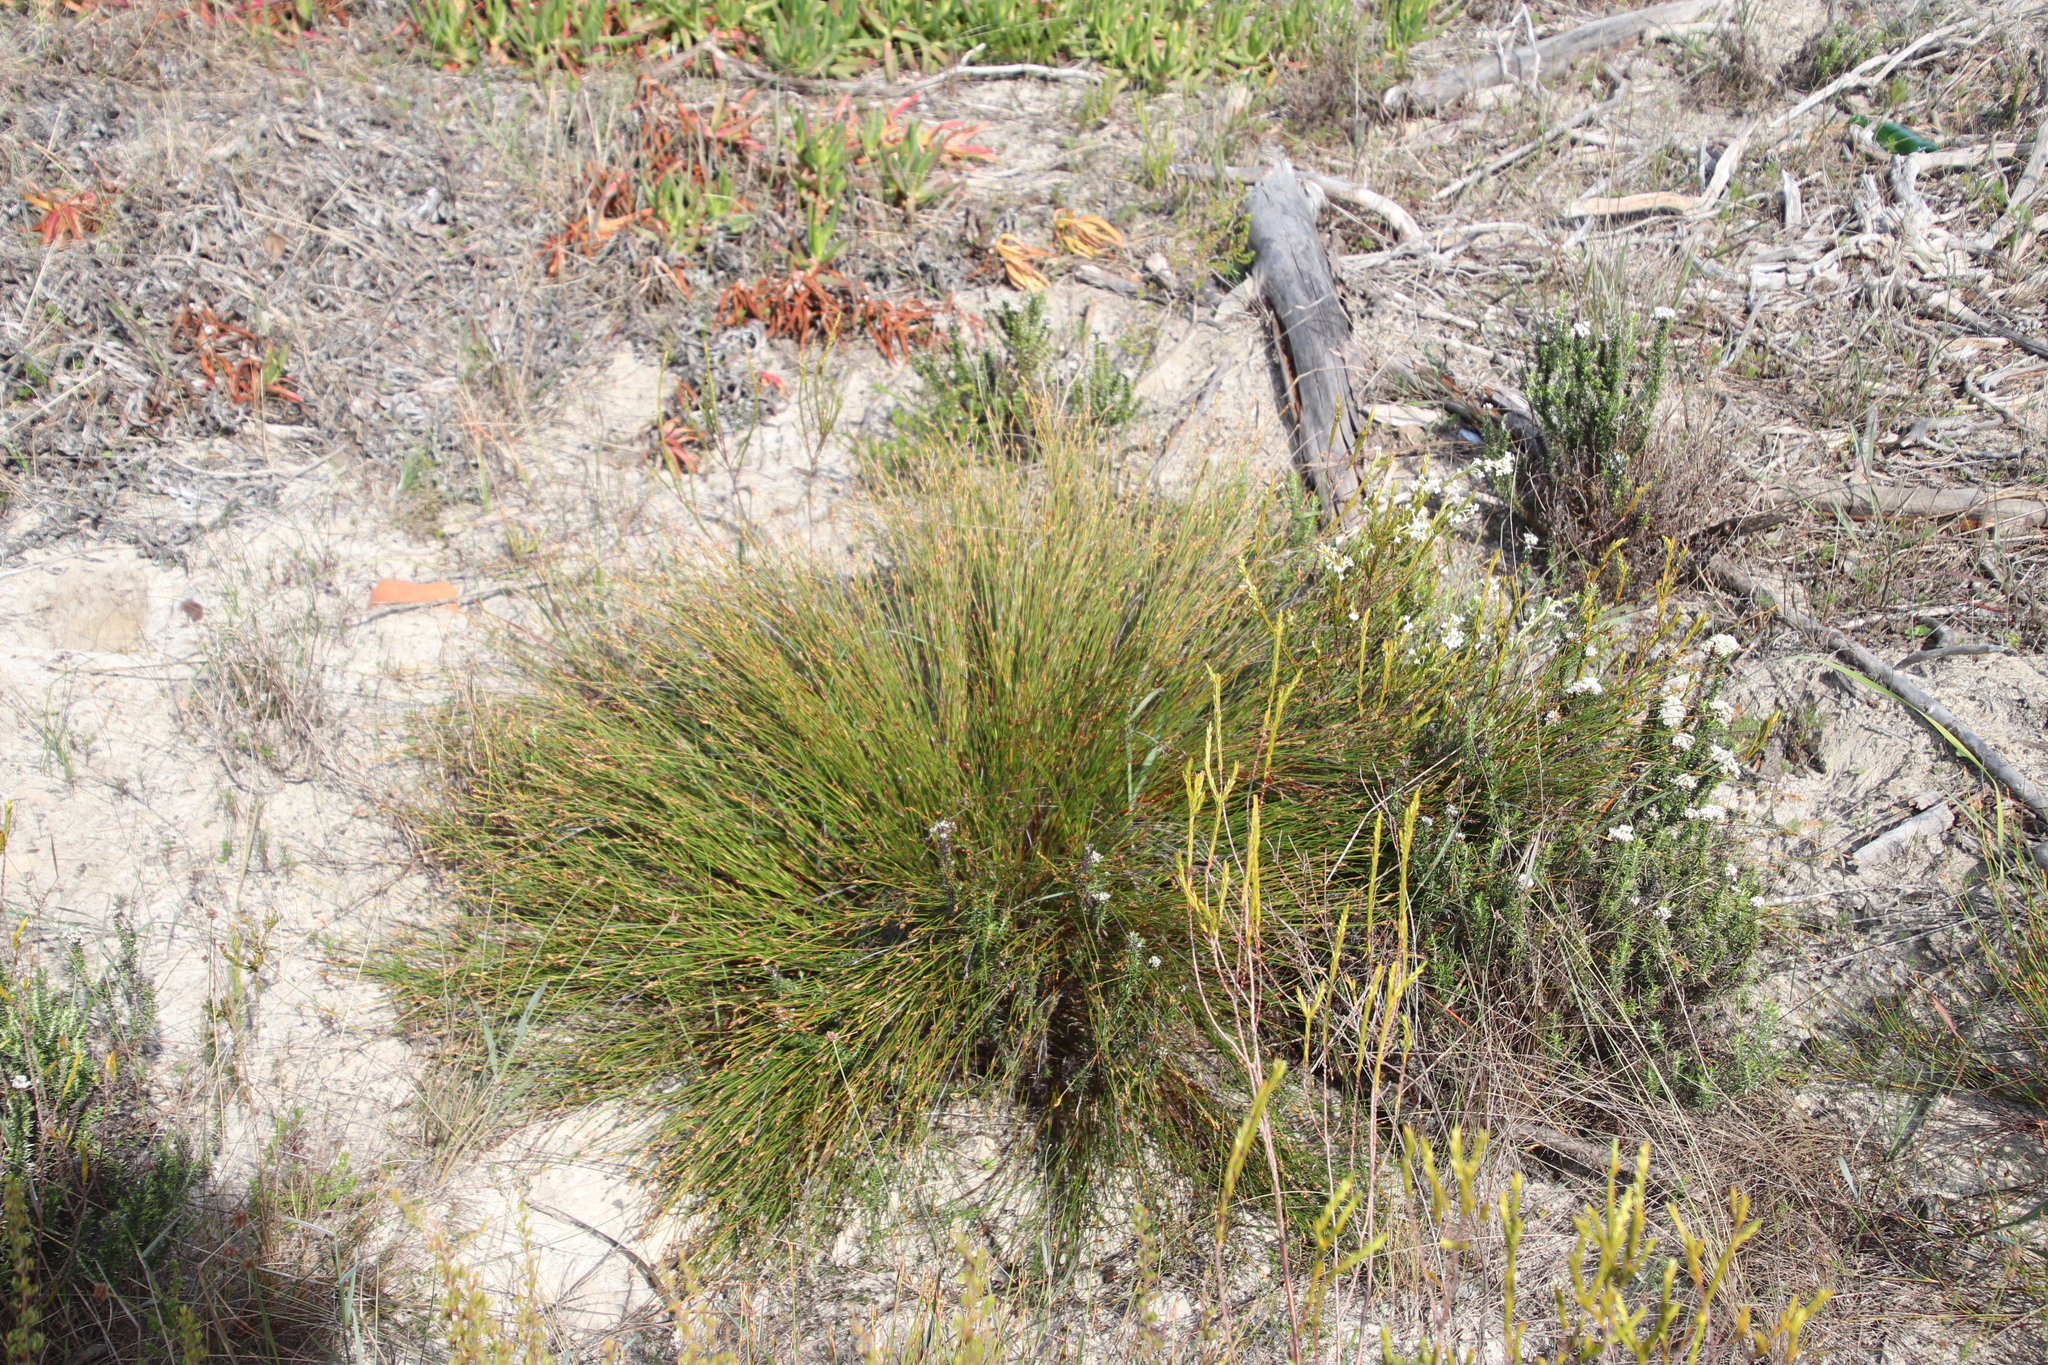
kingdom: Plantae
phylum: Tracheophyta
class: Liliopsida
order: Poales
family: Restionaceae
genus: Mastersiella
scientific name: Mastersiella digitata
